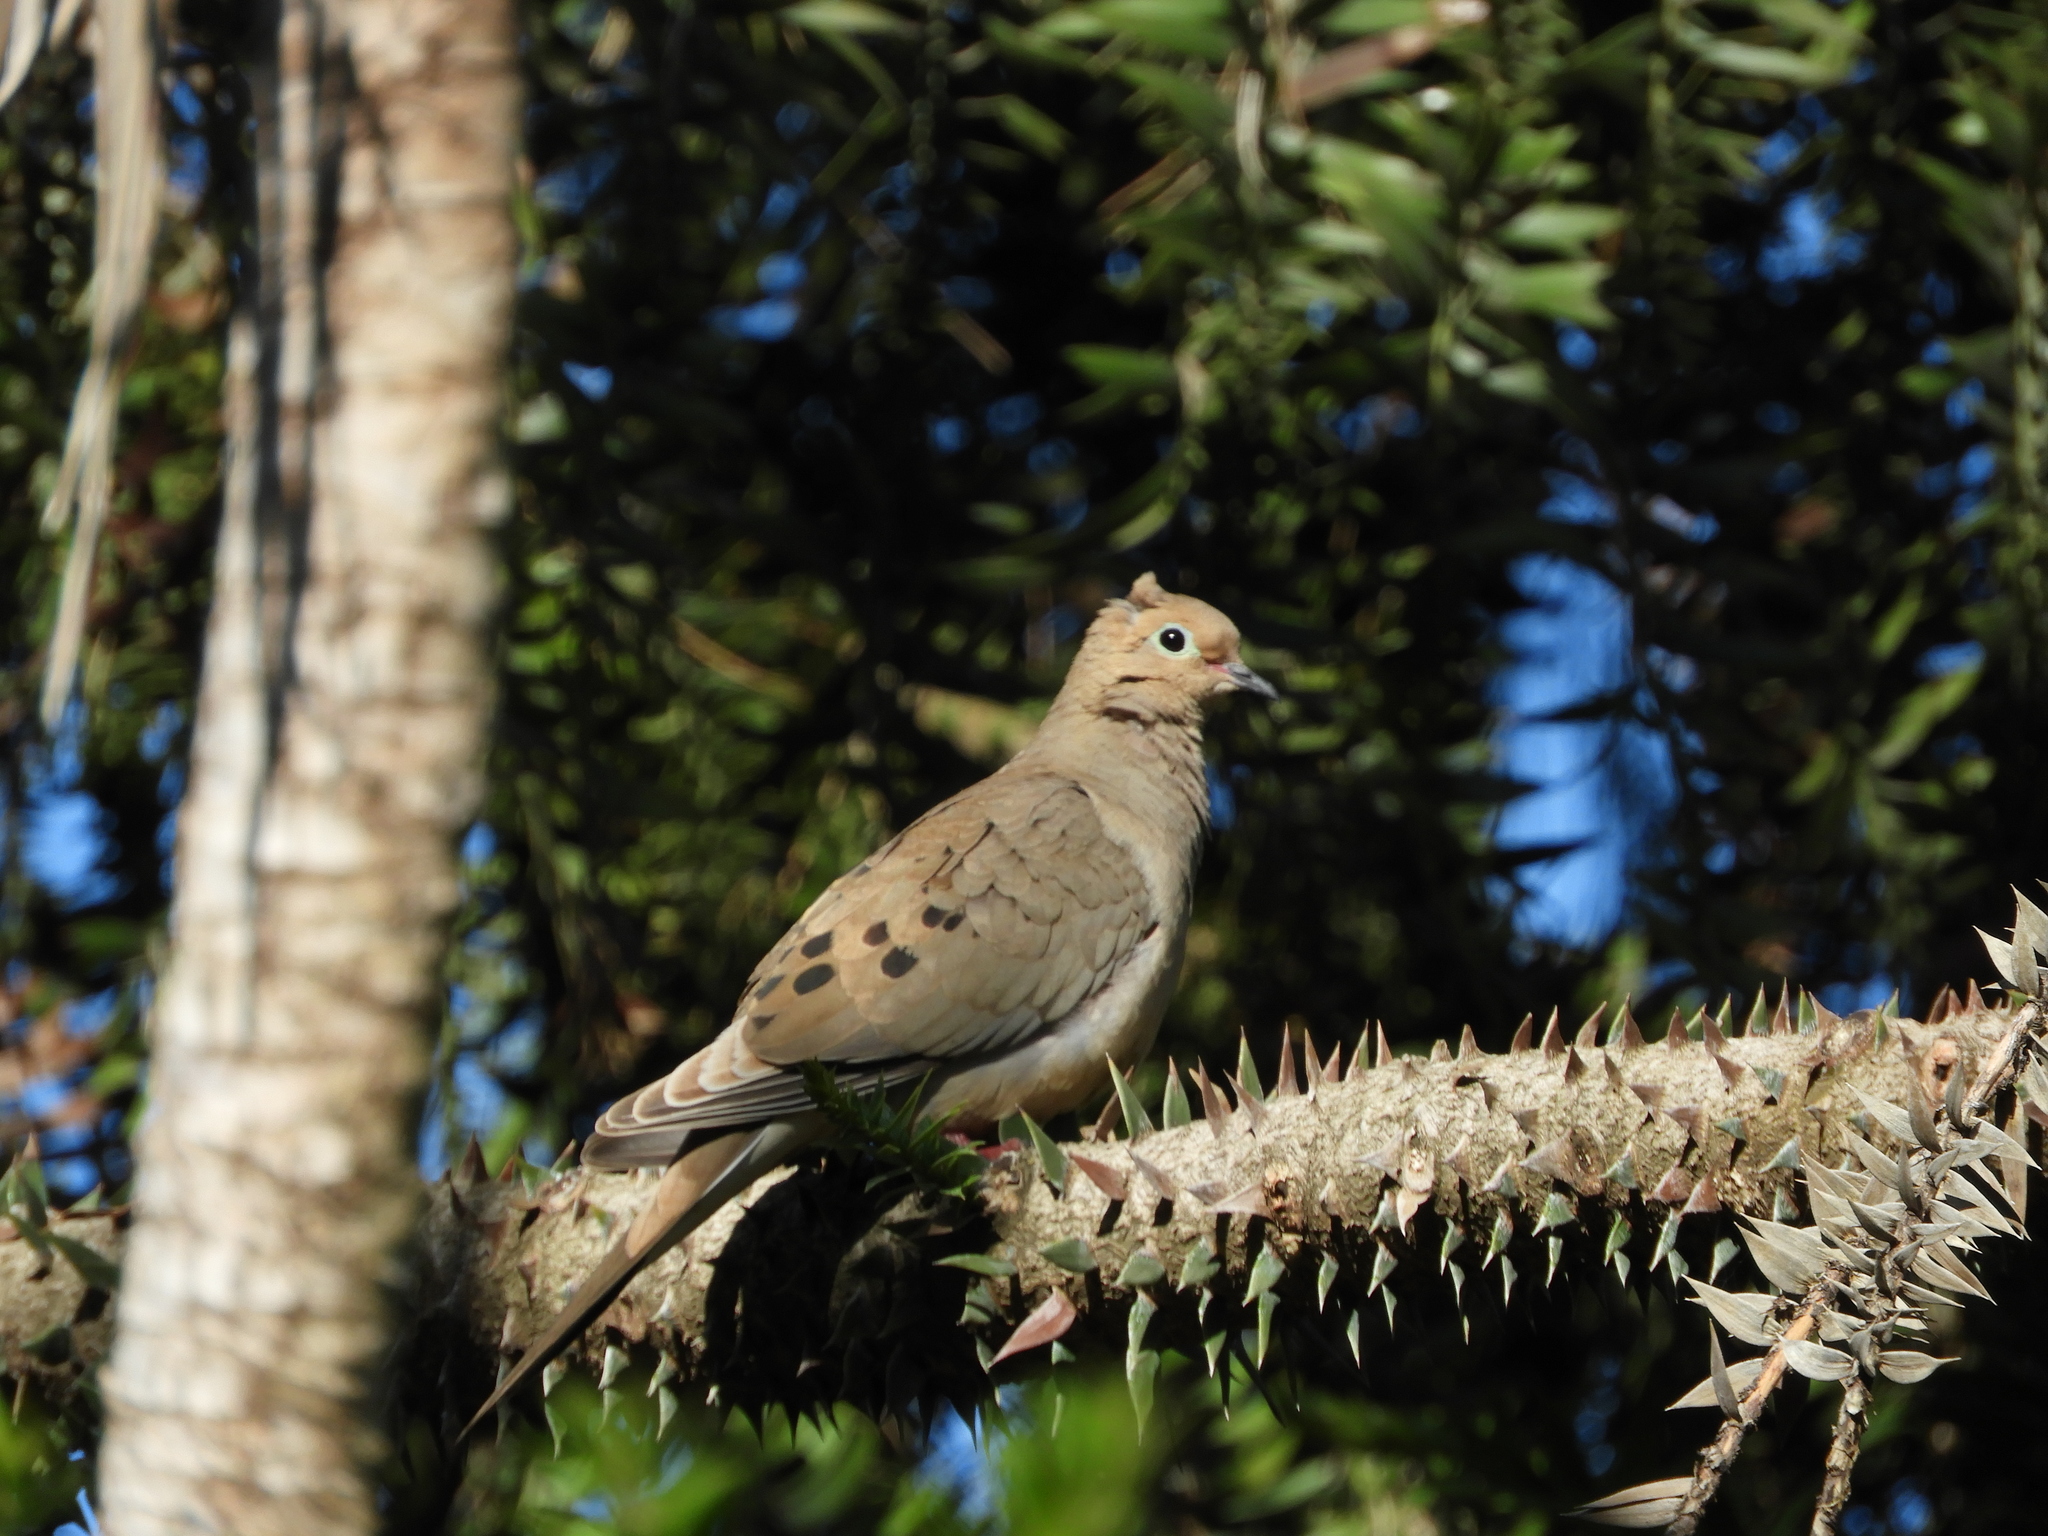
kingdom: Animalia
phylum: Chordata
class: Aves
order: Columbiformes
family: Columbidae
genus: Zenaida
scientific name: Zenaida macroura
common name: Mourning dove
